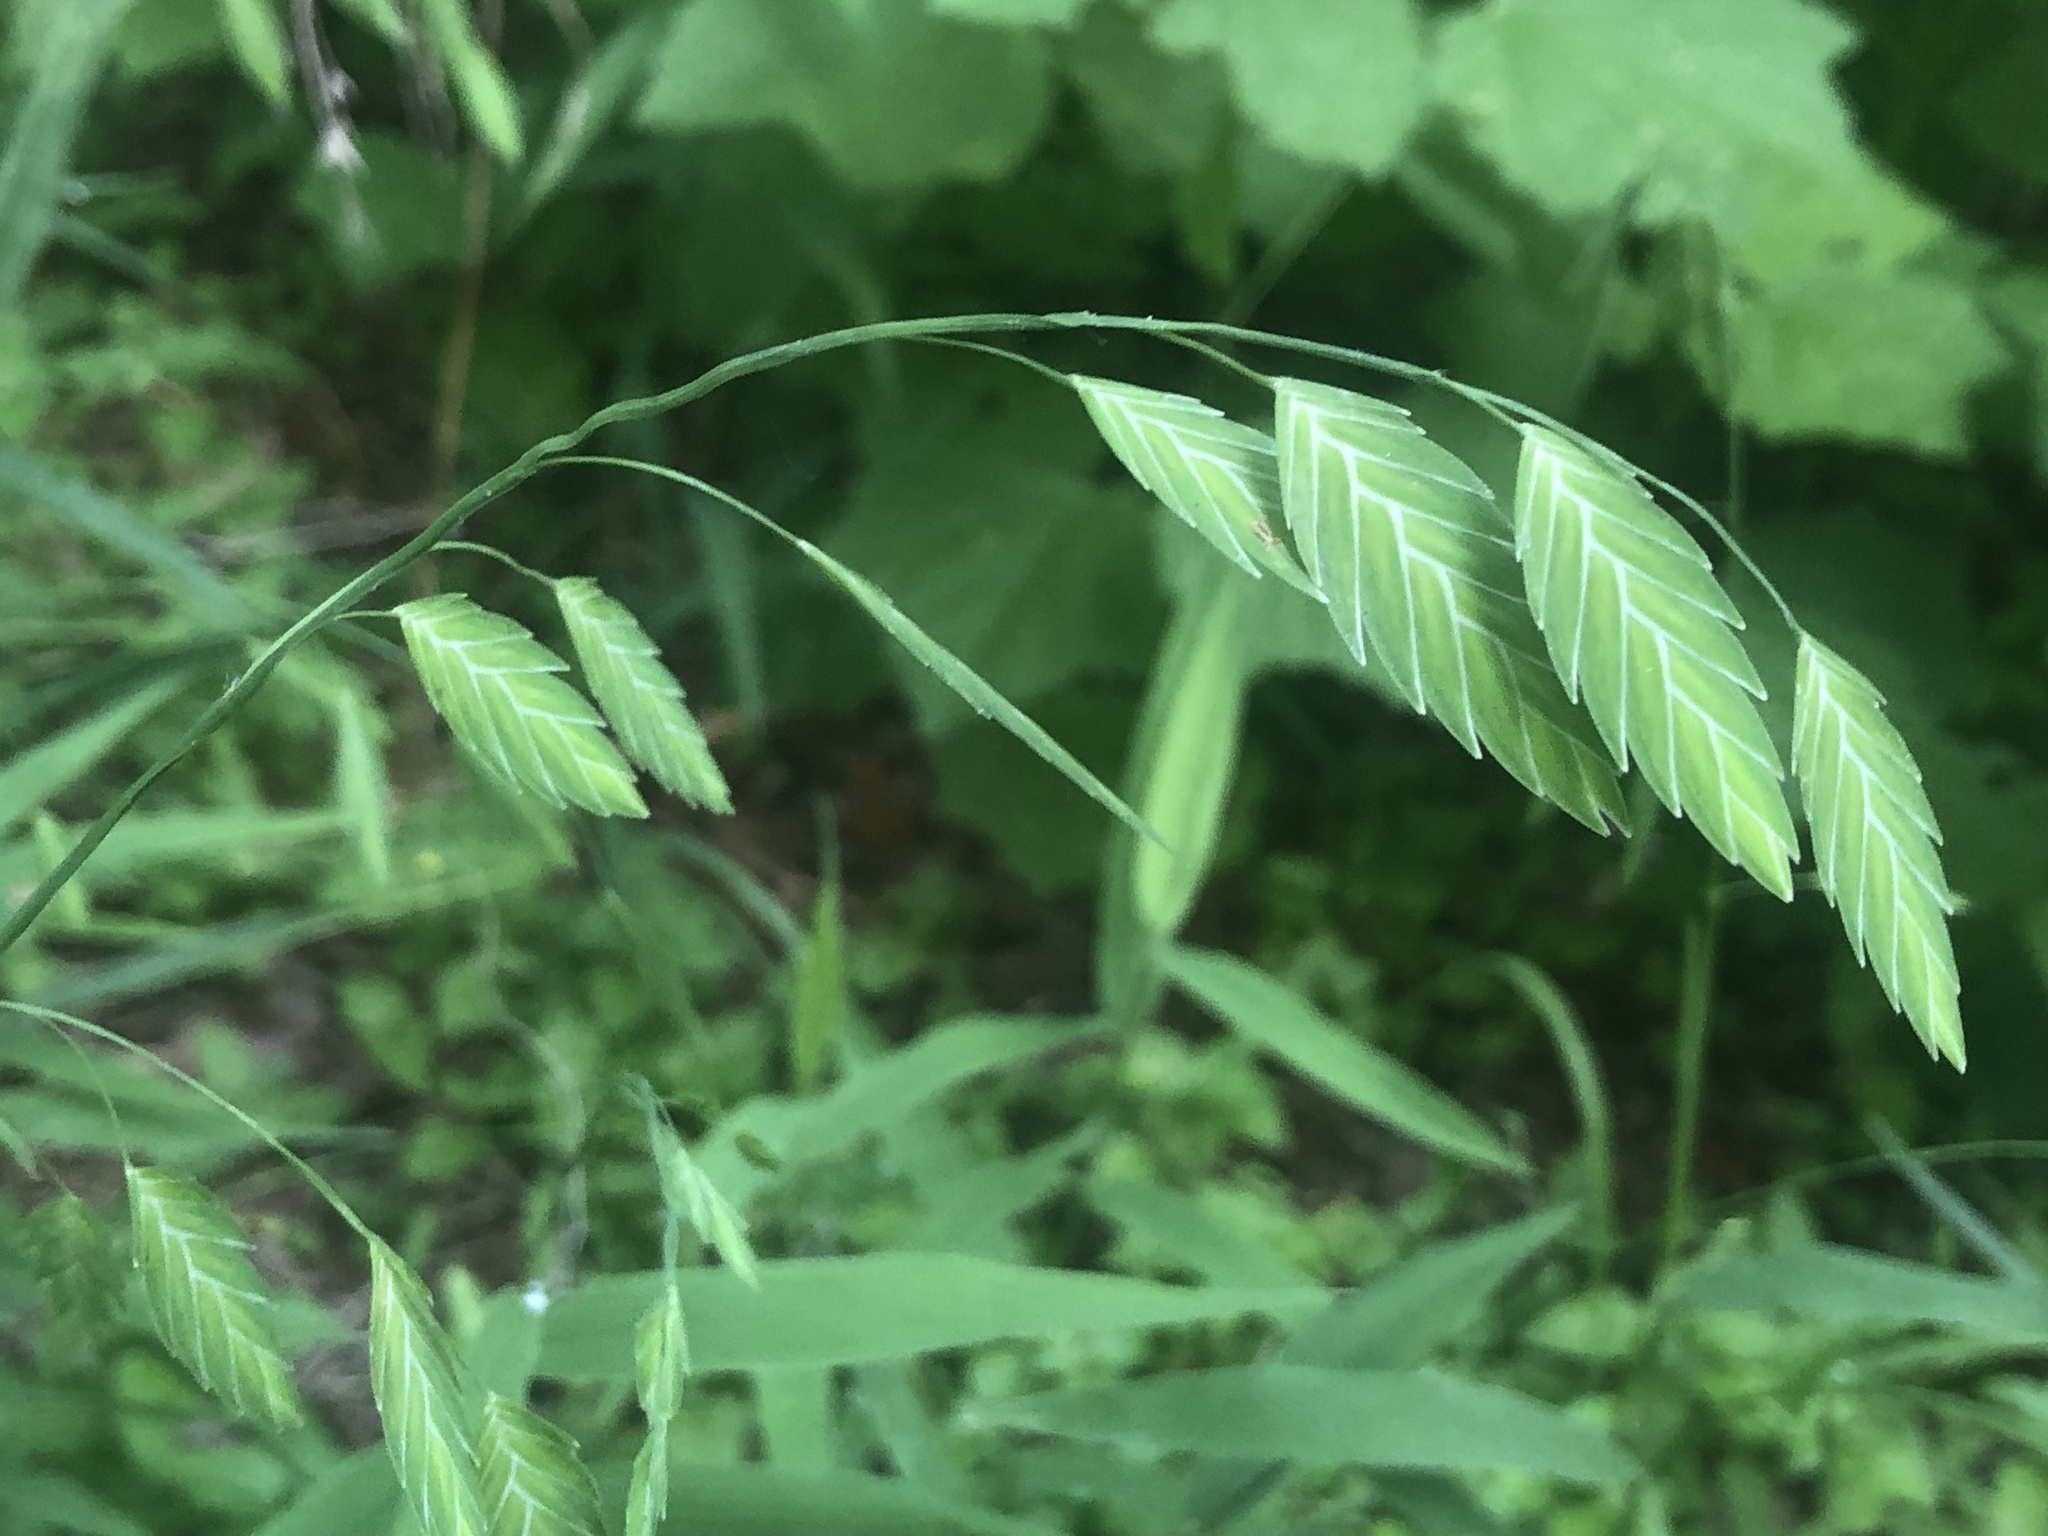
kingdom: Plantae
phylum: Tracheophyta
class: Liliopsida
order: Poales
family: Poaceae
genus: Chasmanthium
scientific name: Chasmanthium latifolium
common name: Broad-leaved chasmanthium
